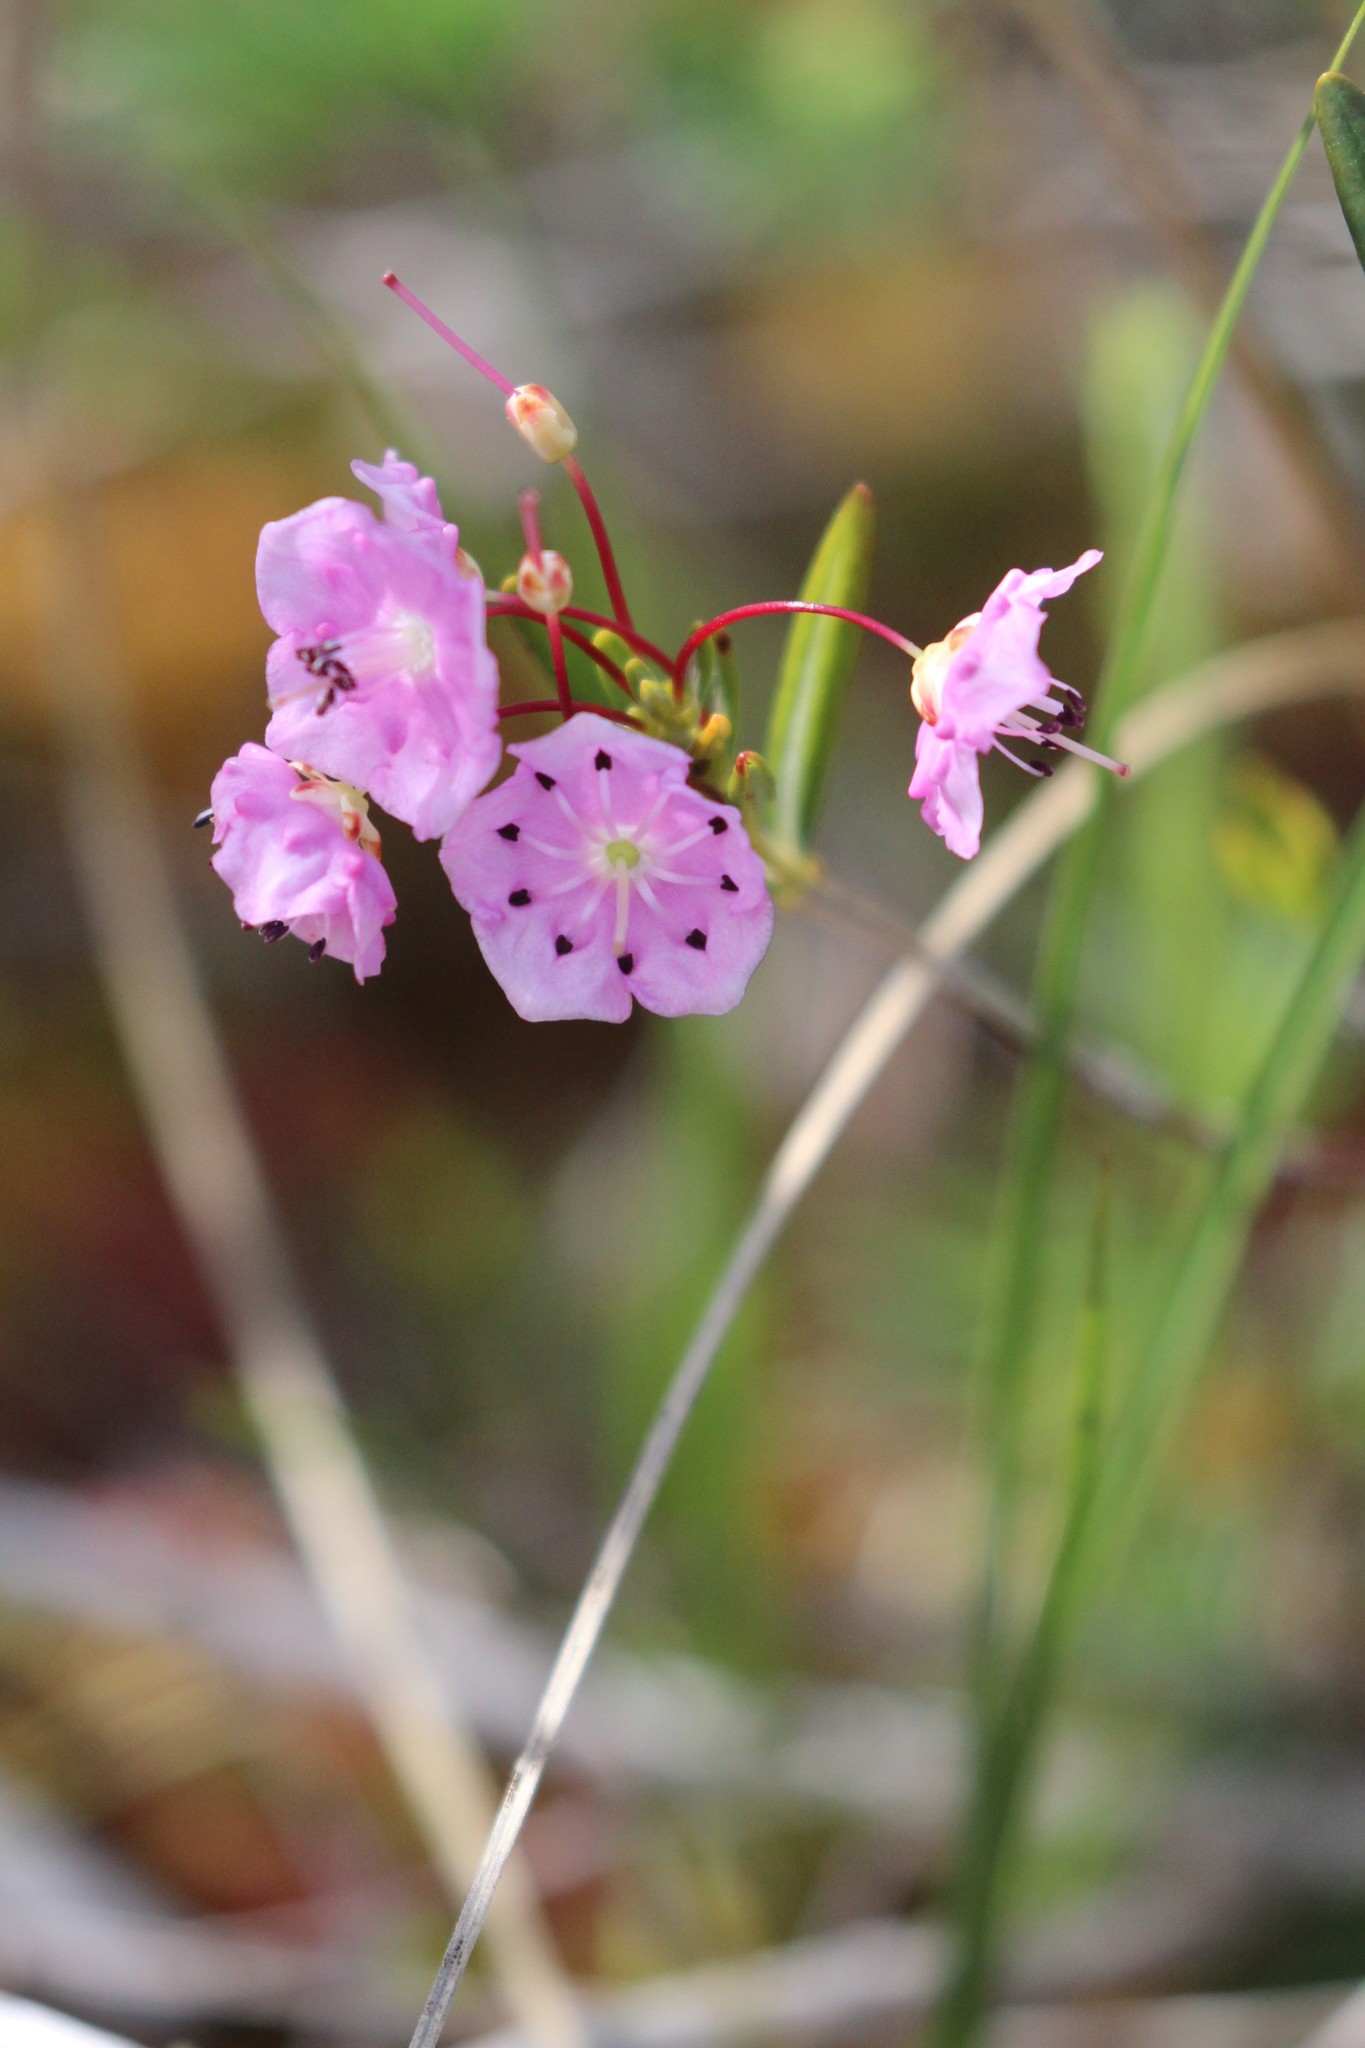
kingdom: Plantae
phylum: Tracheophyta
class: Magnoliopsida
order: Ericales
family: Ericaceae
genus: Kalmia
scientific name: Kalmia polifolia
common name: Bog-laurel
